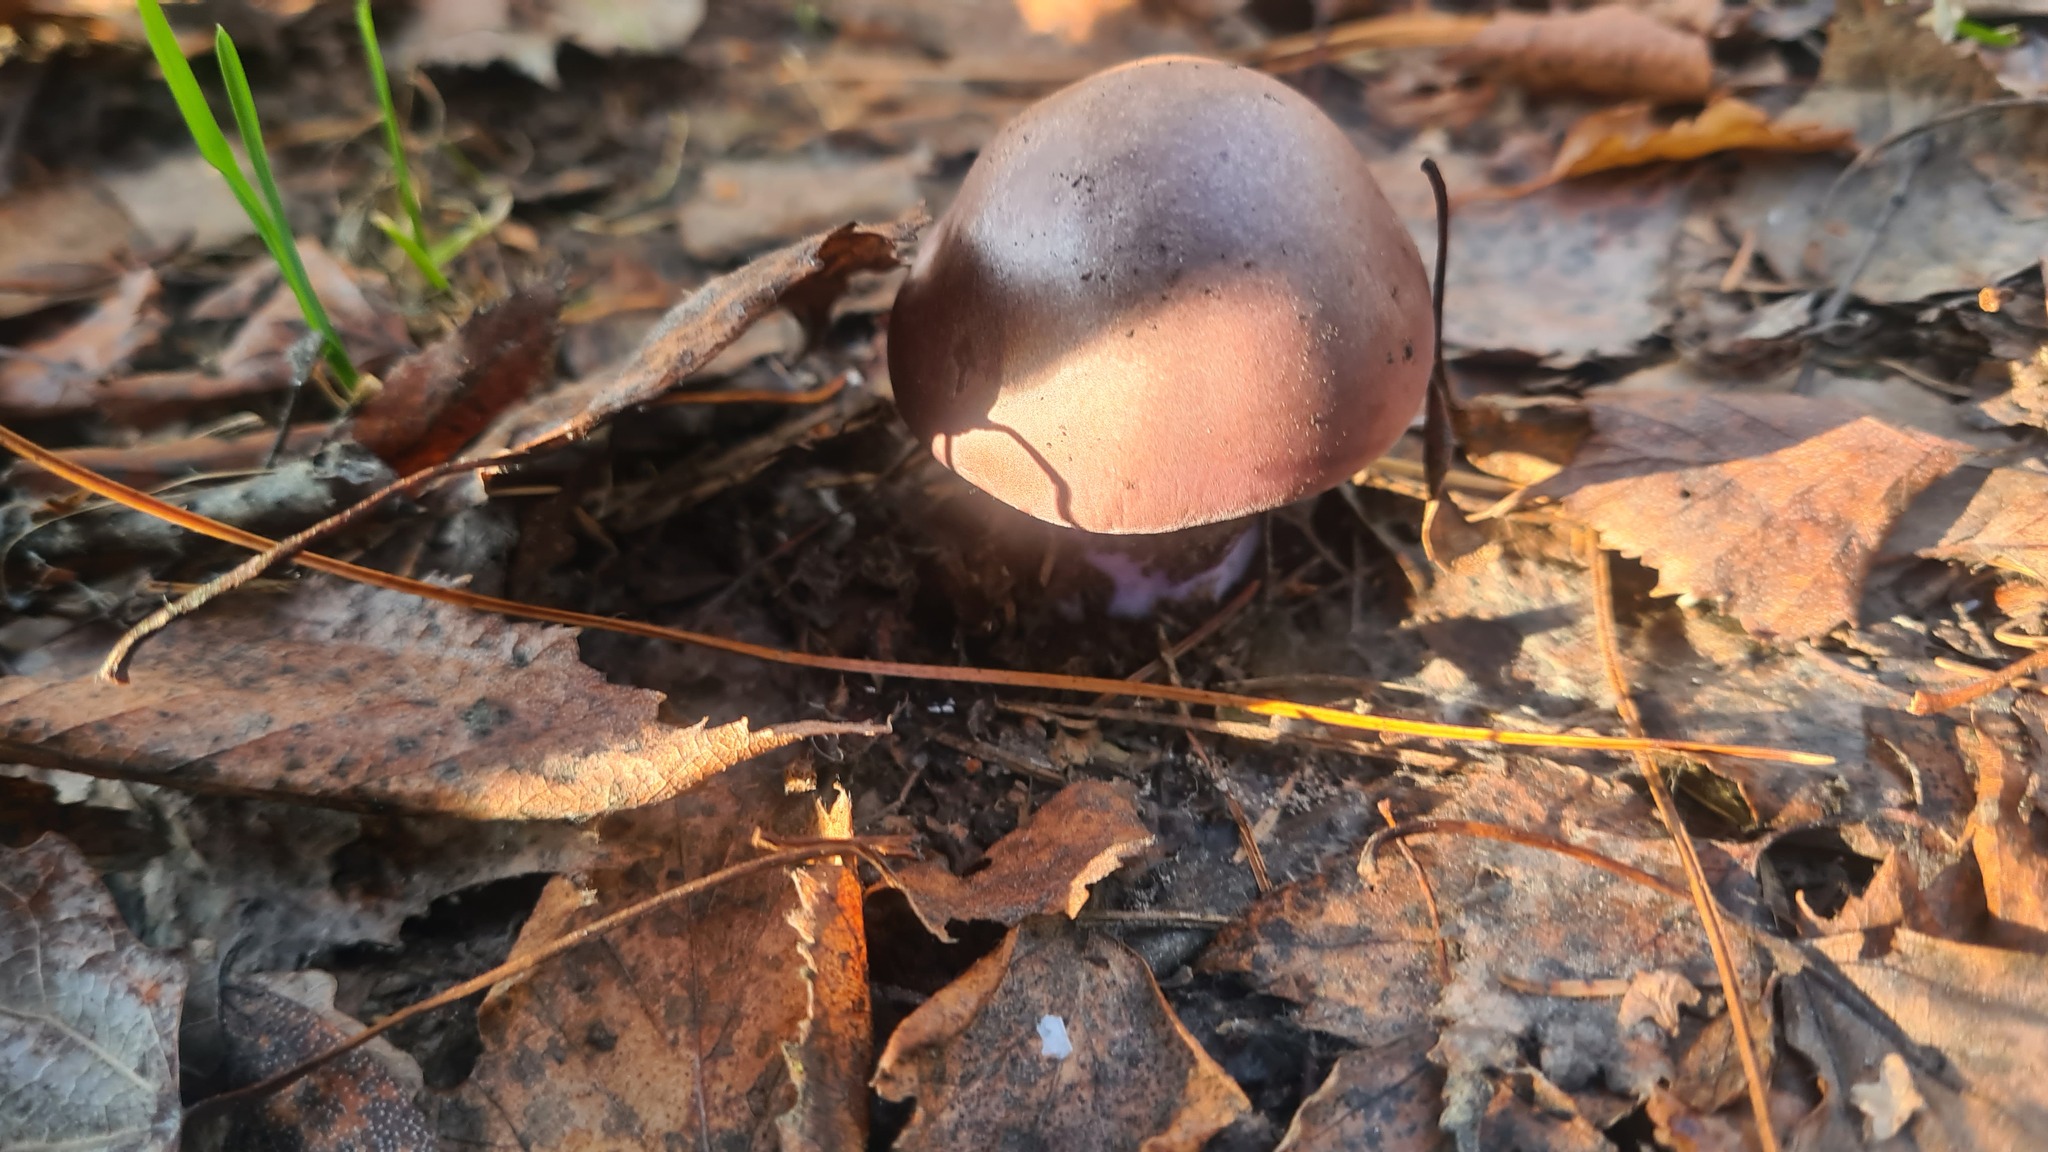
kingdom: Fungi
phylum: Basidiomycota
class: Agaricomycetes
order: Agaricales
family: Tricholomataceae
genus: Collybia
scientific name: Collybia
